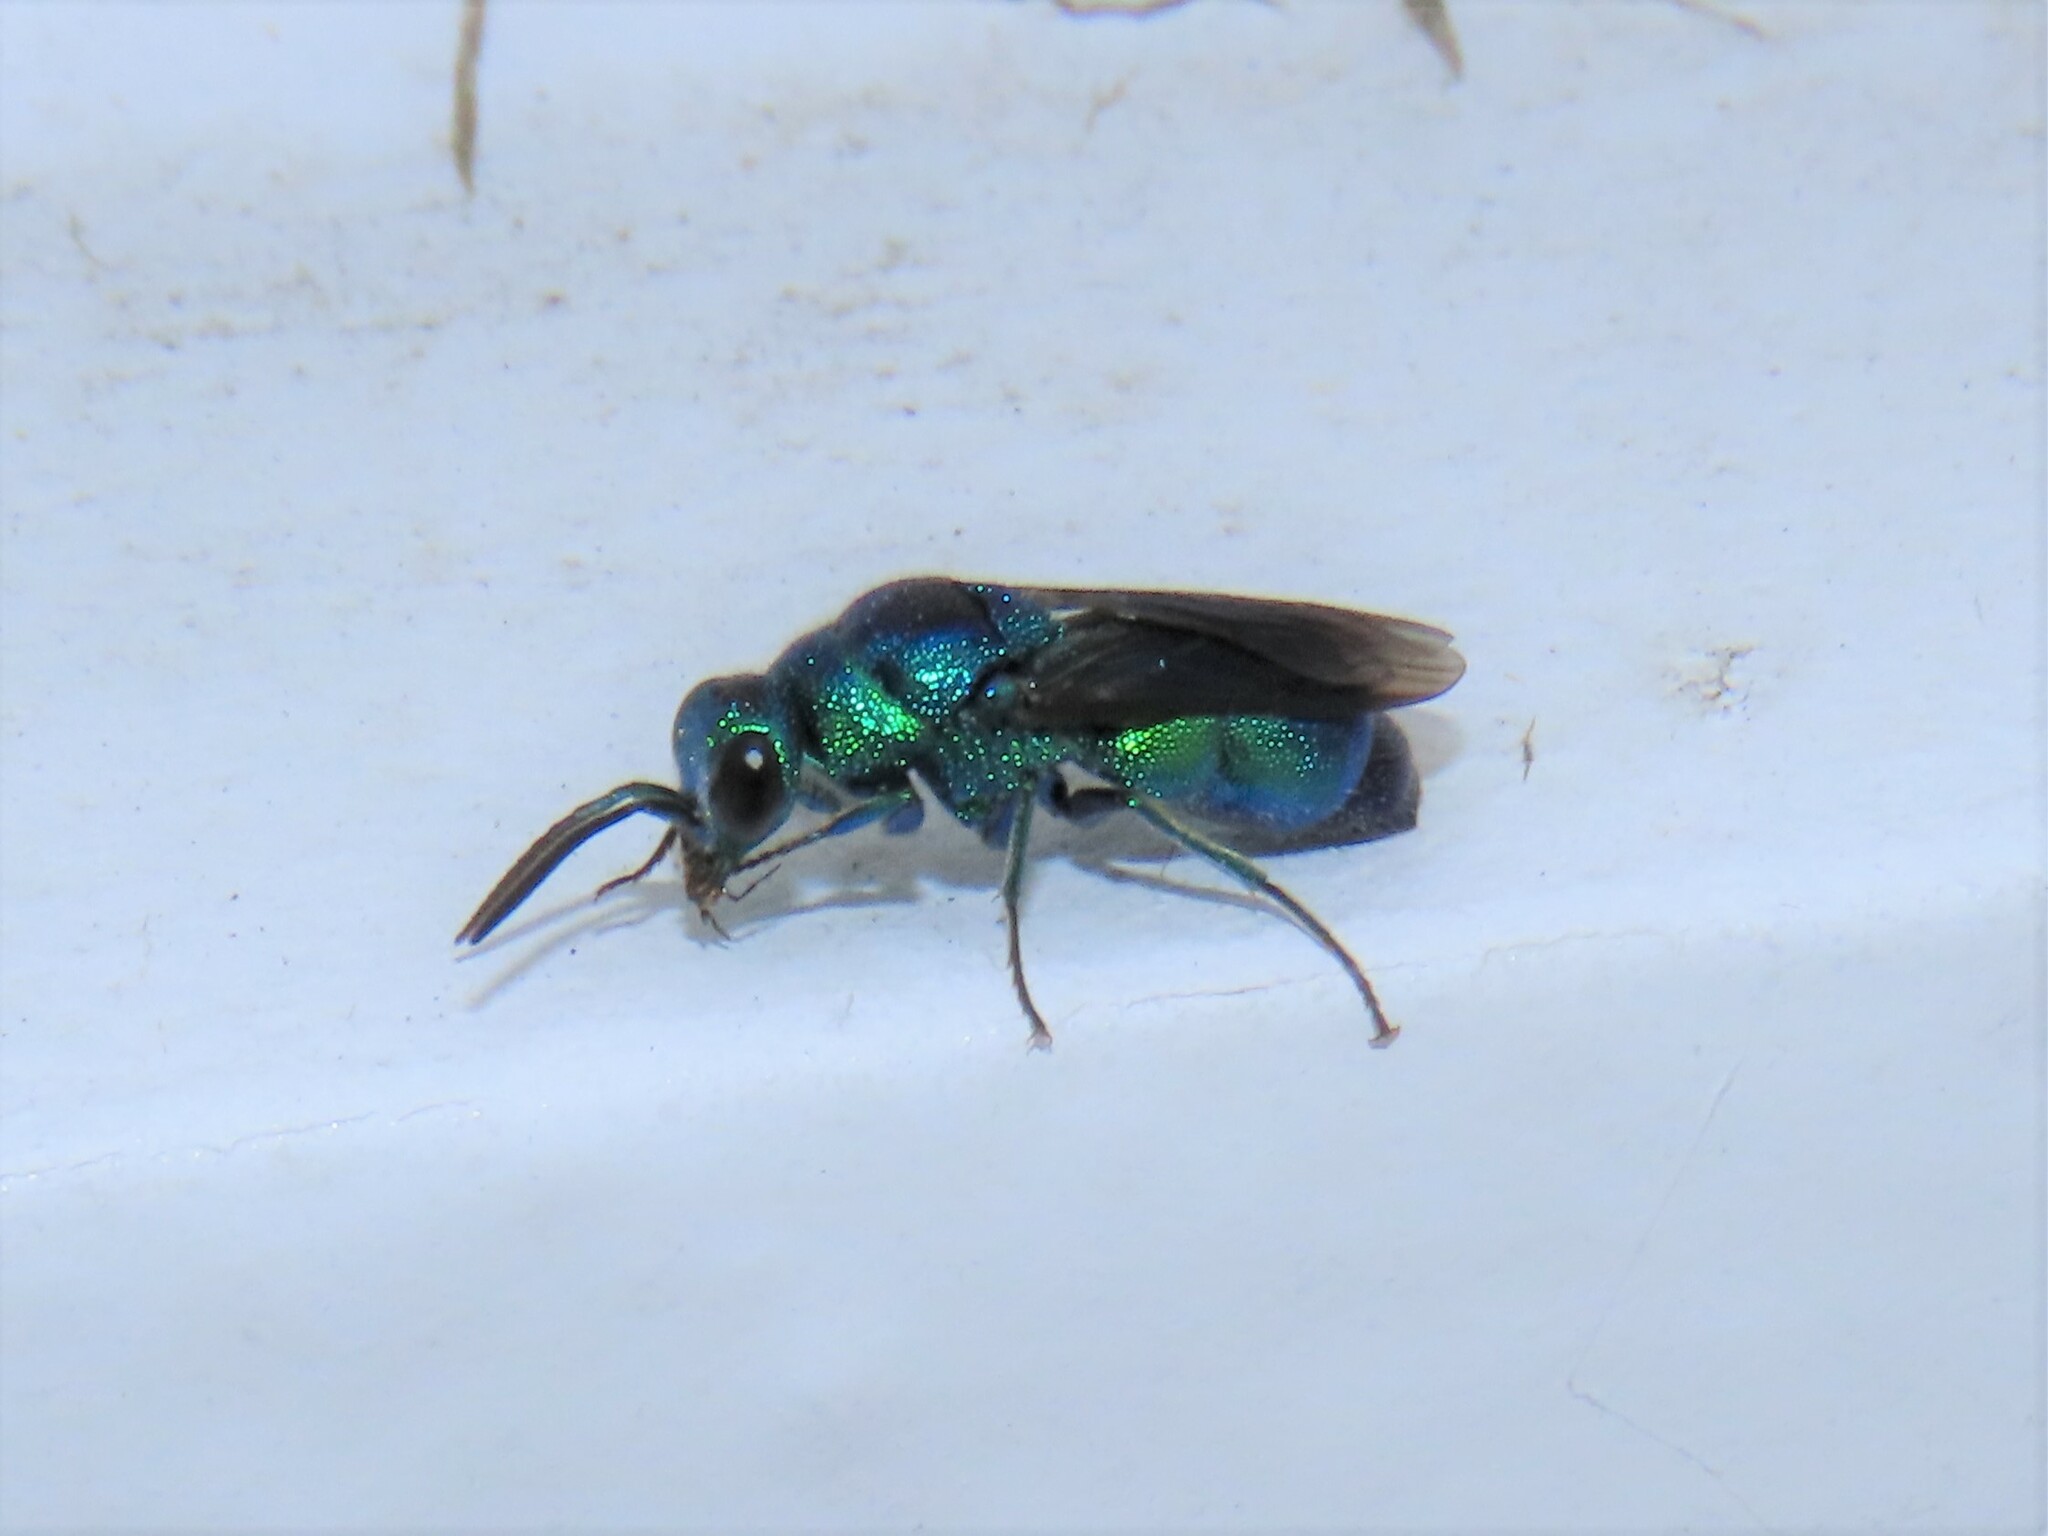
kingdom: Animalia
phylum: Arthropoda
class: Insecta
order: Hymenoptera
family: Chrysididae
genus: Chrysis
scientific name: Chrysis angolensis
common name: Cuckoo wasp
